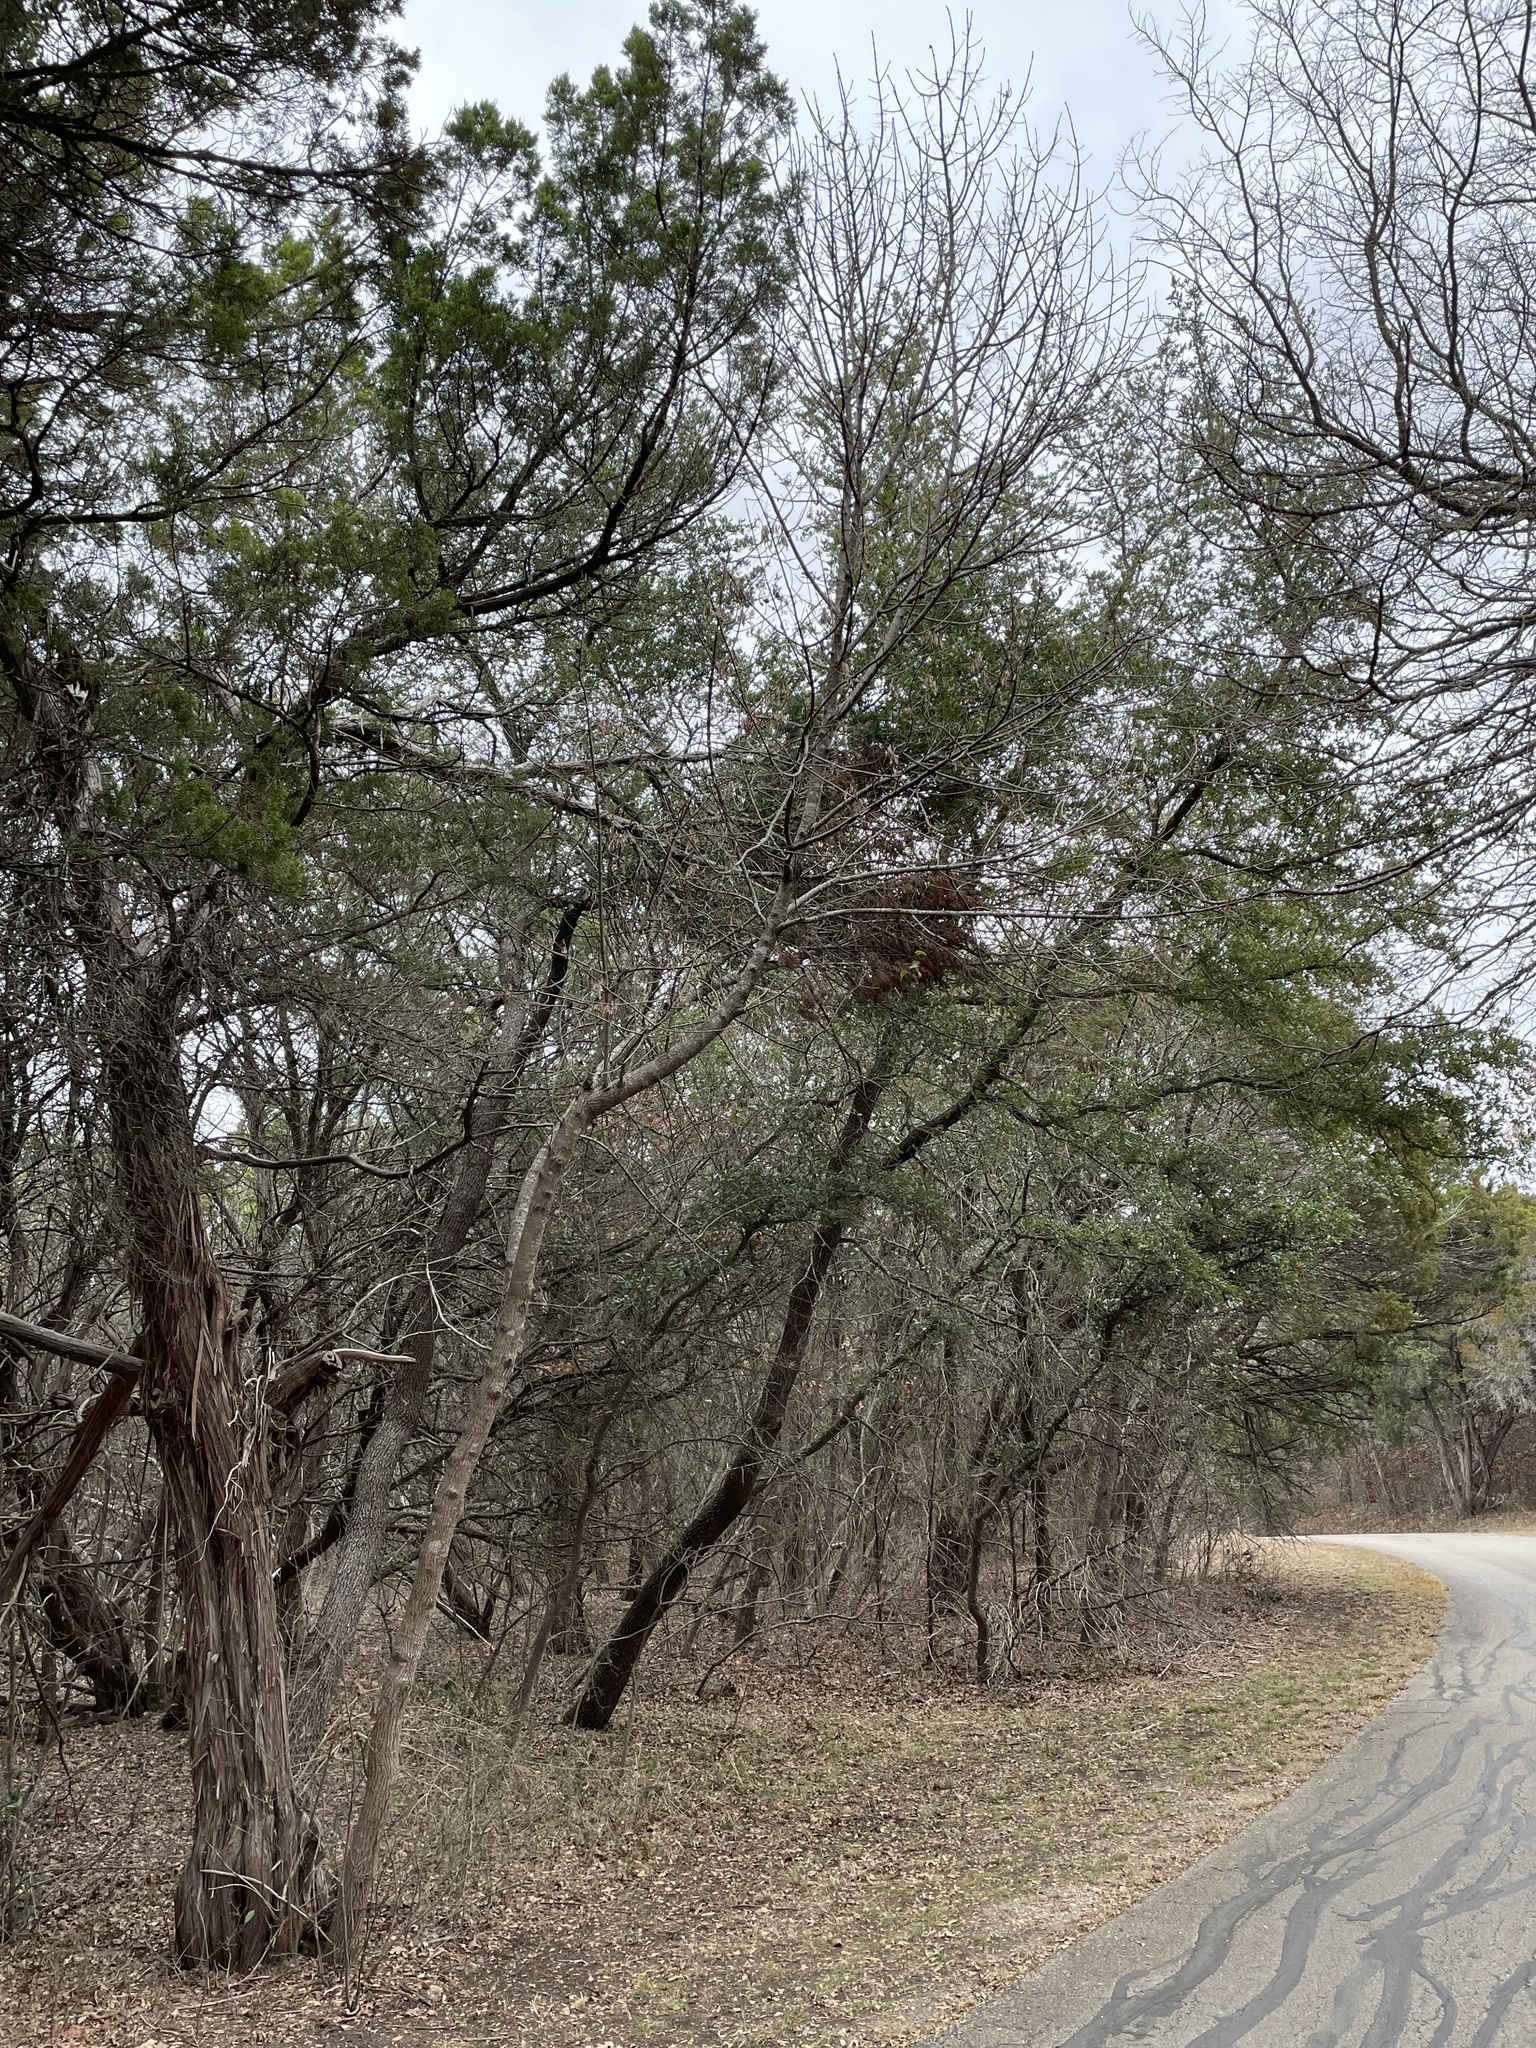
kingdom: Plantae
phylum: Tracheophyta
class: Magnoliopsida
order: Lamiales
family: Oleaceae
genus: Fraxinus
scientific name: Fraxinus albicans
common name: Texas ash
